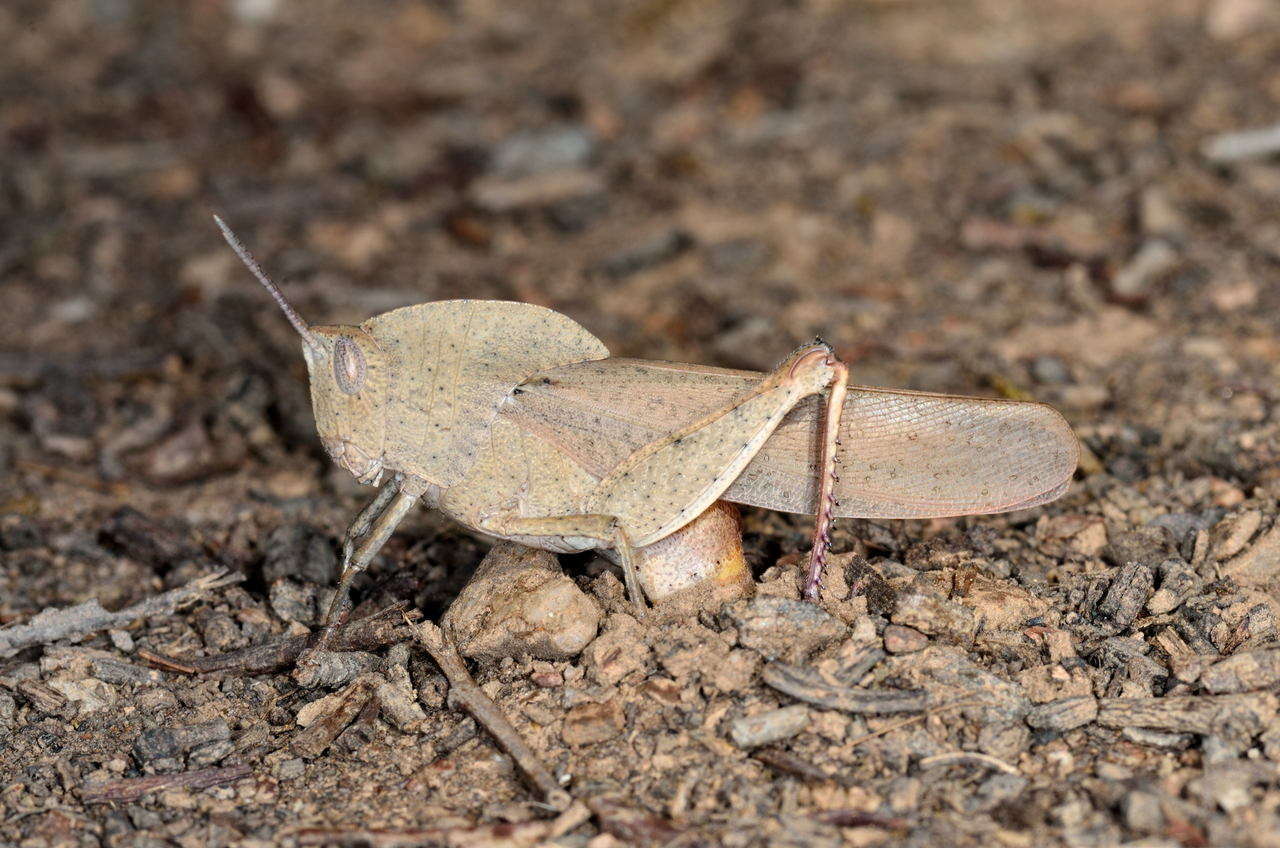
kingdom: Animalia
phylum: Arthropoda
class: Insecta
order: Orthoptera
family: Acrididae
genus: Goniaea
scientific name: Goniaea australasiae
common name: Gumleaf grasshopper
